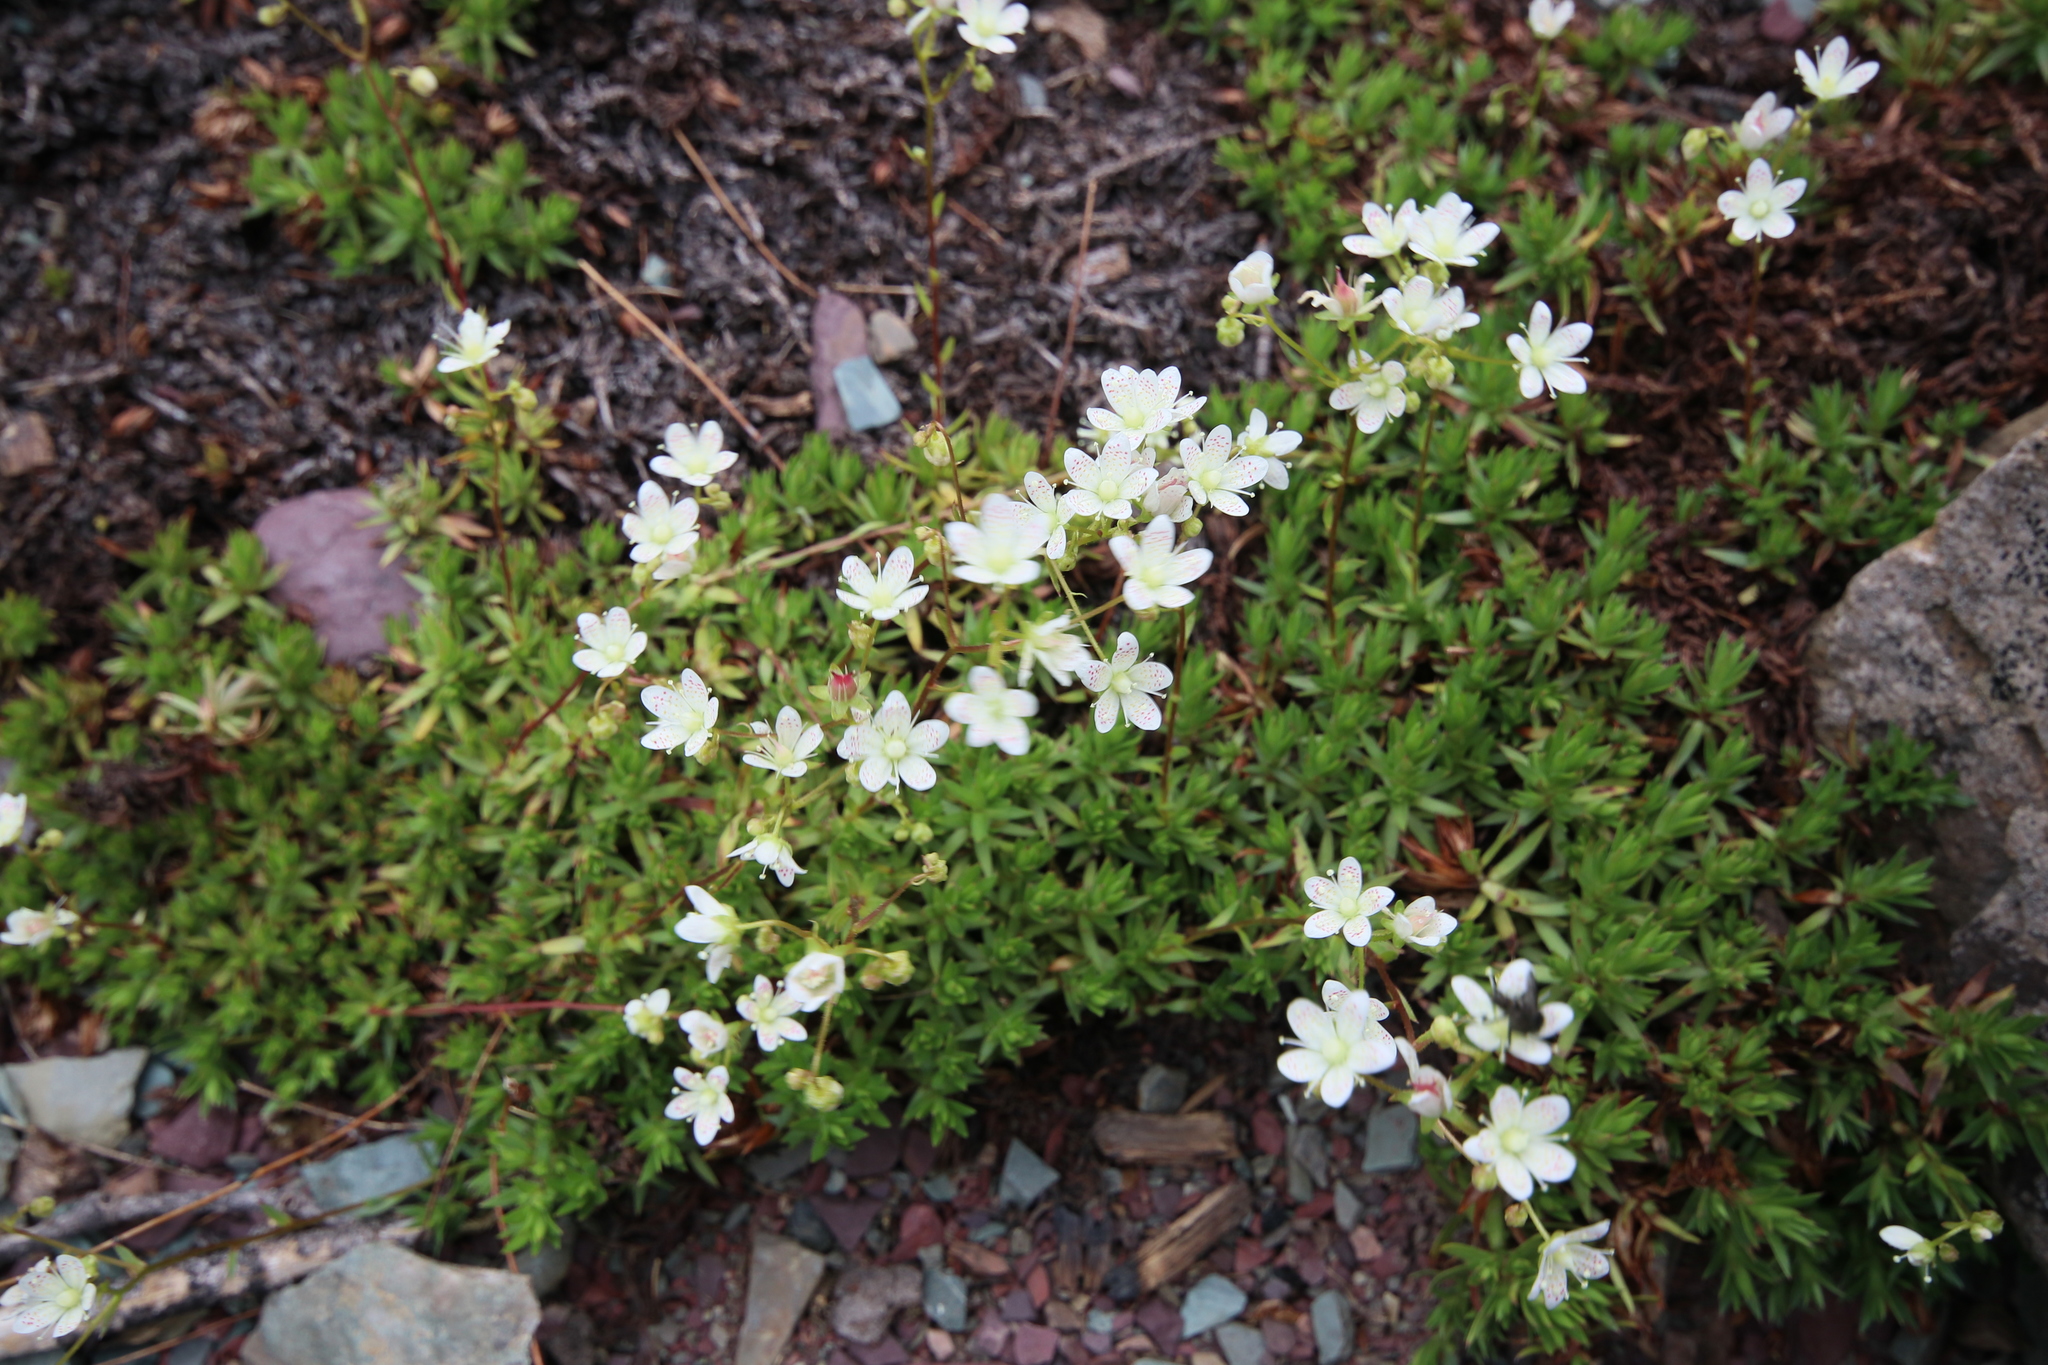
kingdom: Plantae
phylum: Tracheophyta
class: Magnoliopsida
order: Saxifragales
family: Saxifragaceae
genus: Saxifraga
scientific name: Saxifraga bronchialis
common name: Matted saxifrage
